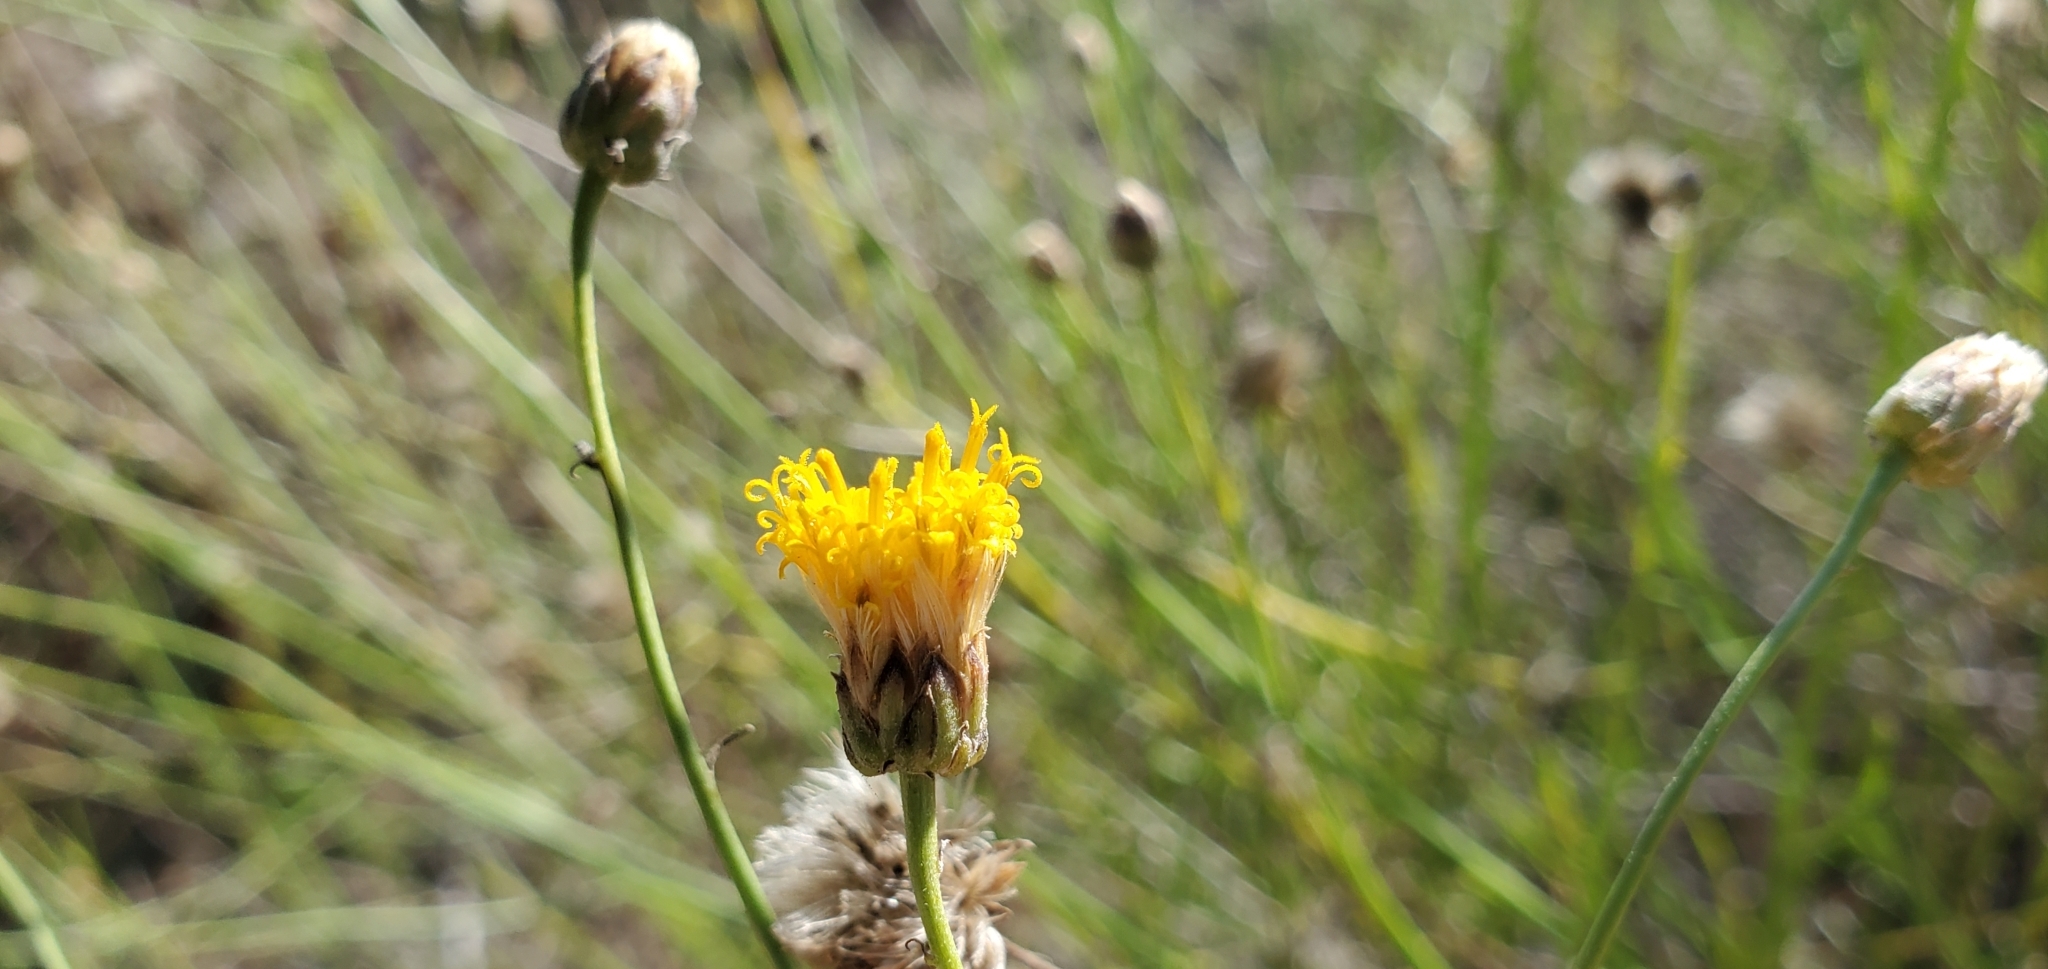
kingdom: Plantae
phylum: Tracheophyta
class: Magnoliopsida
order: Asterales
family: Asteraceae
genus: Bebbia
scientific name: Bebbia juncea
